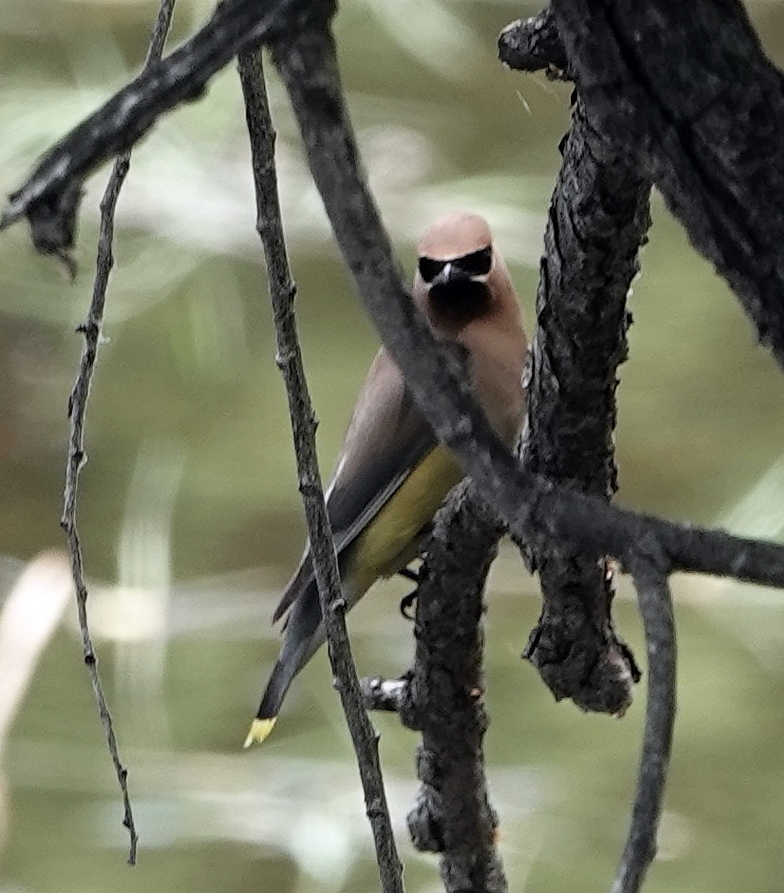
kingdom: Animalia
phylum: Chordata
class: Aves
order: Passeriformes
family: Bombycillidae
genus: Bombycilla
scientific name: Bombycilla cedrorum
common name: Cedar waxwing
